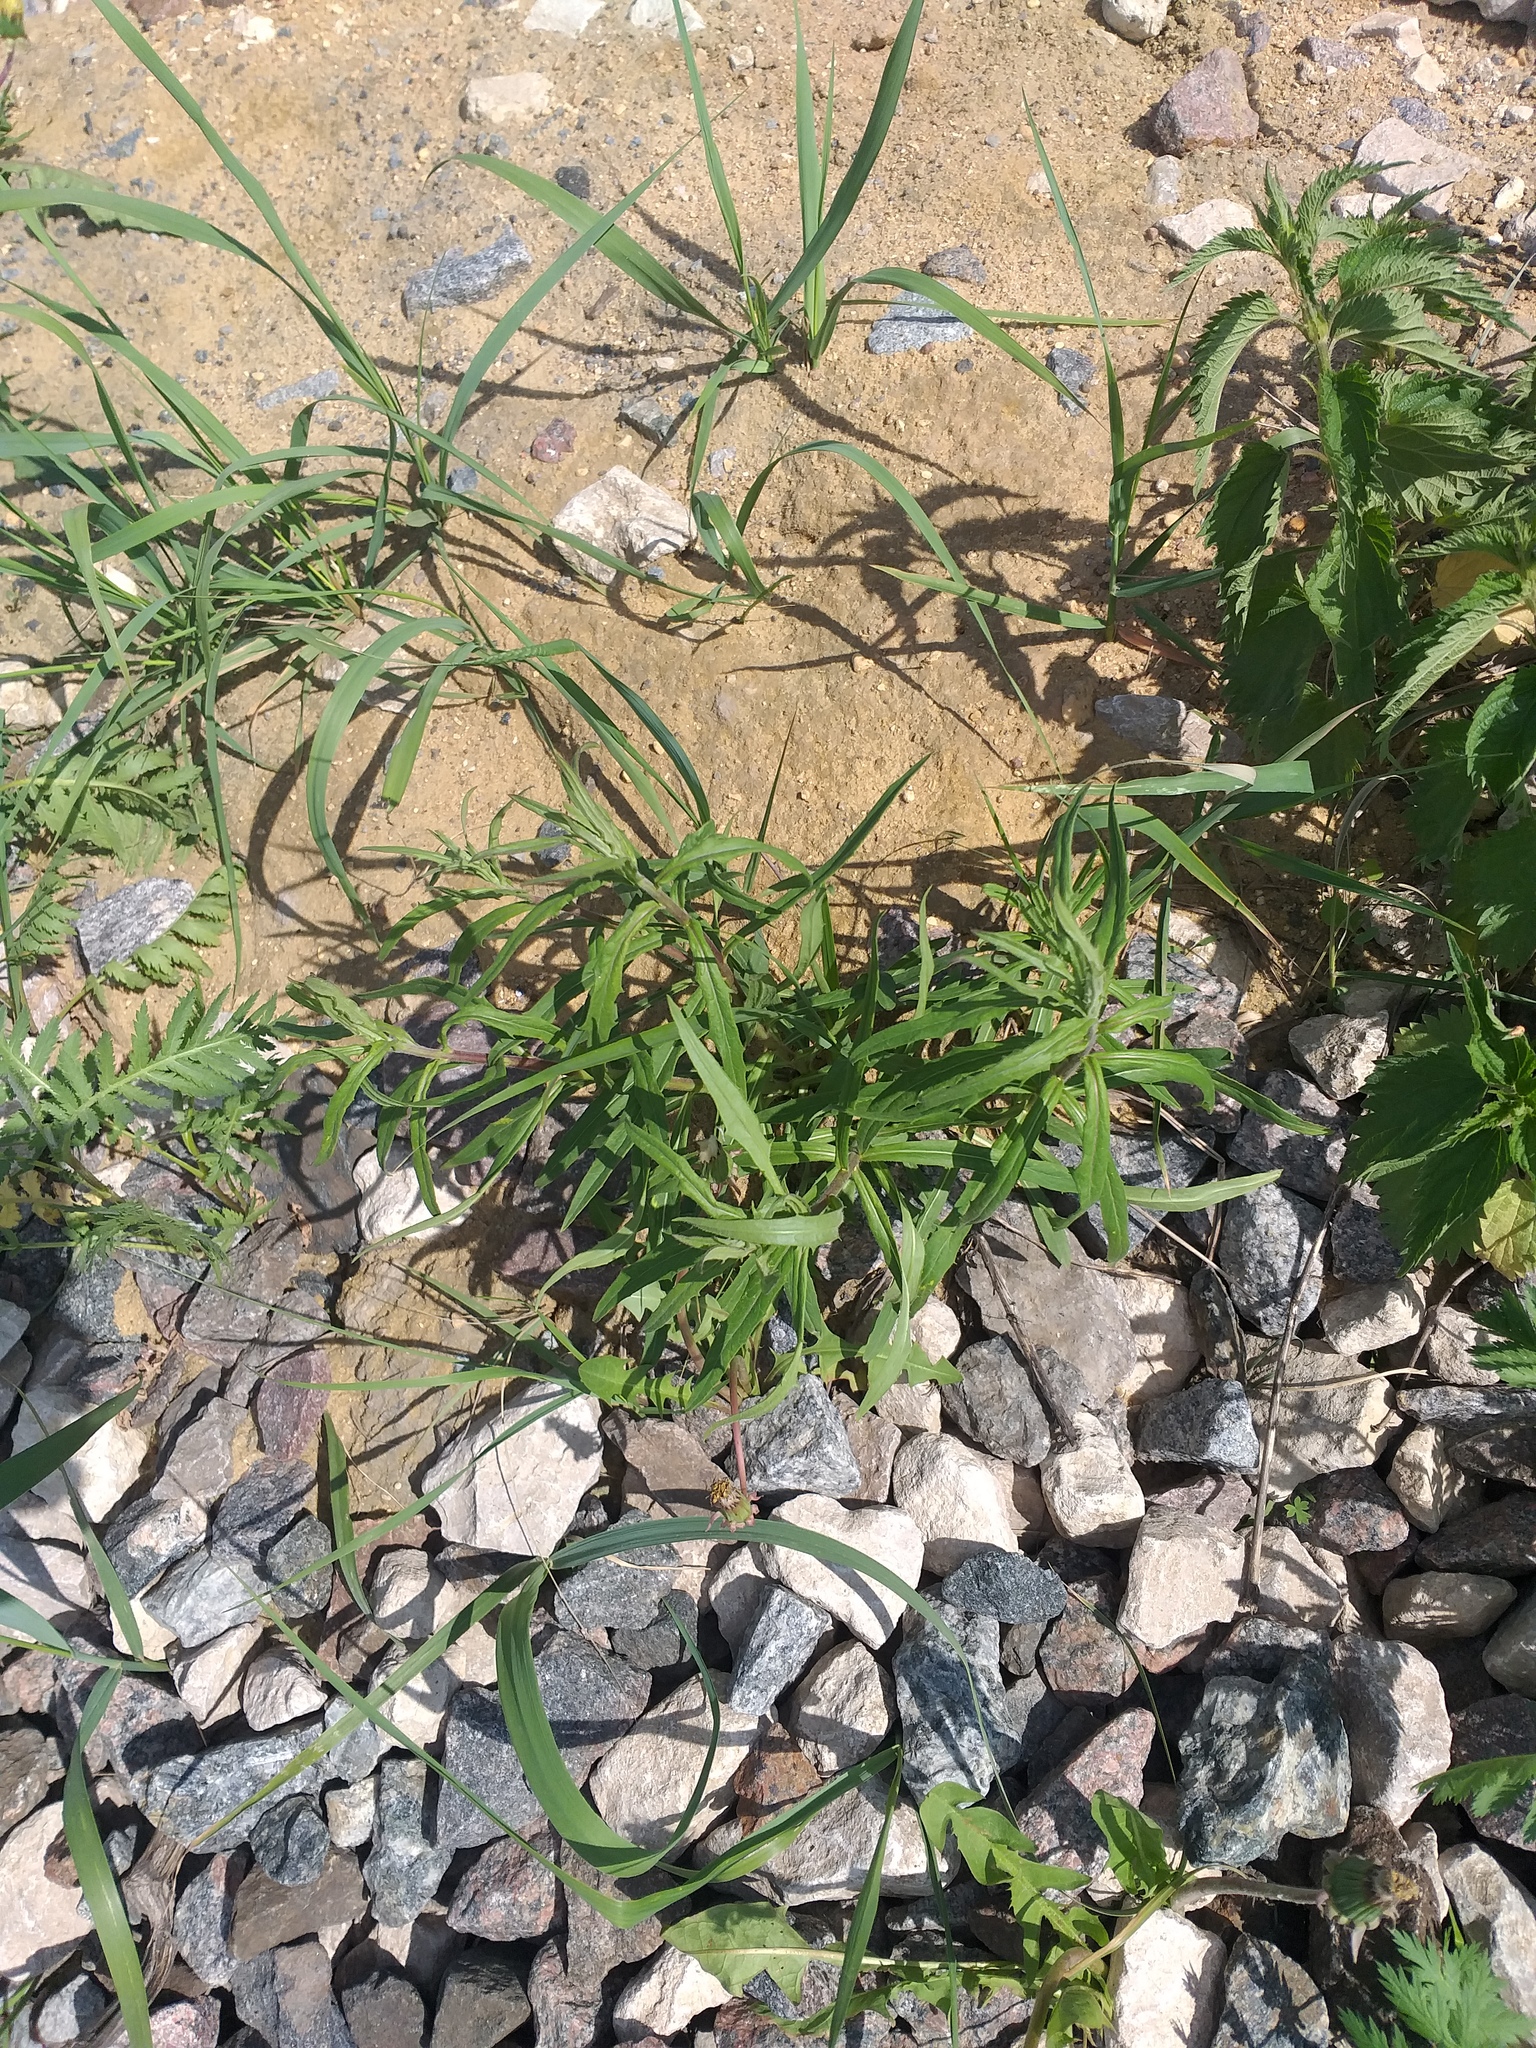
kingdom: Plantae
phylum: Tracheophyta
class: Magnoliopsida
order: Asterales
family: Asteraceae
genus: Hieracium
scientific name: Hieracium umbellatum
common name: Northern hawkweed
